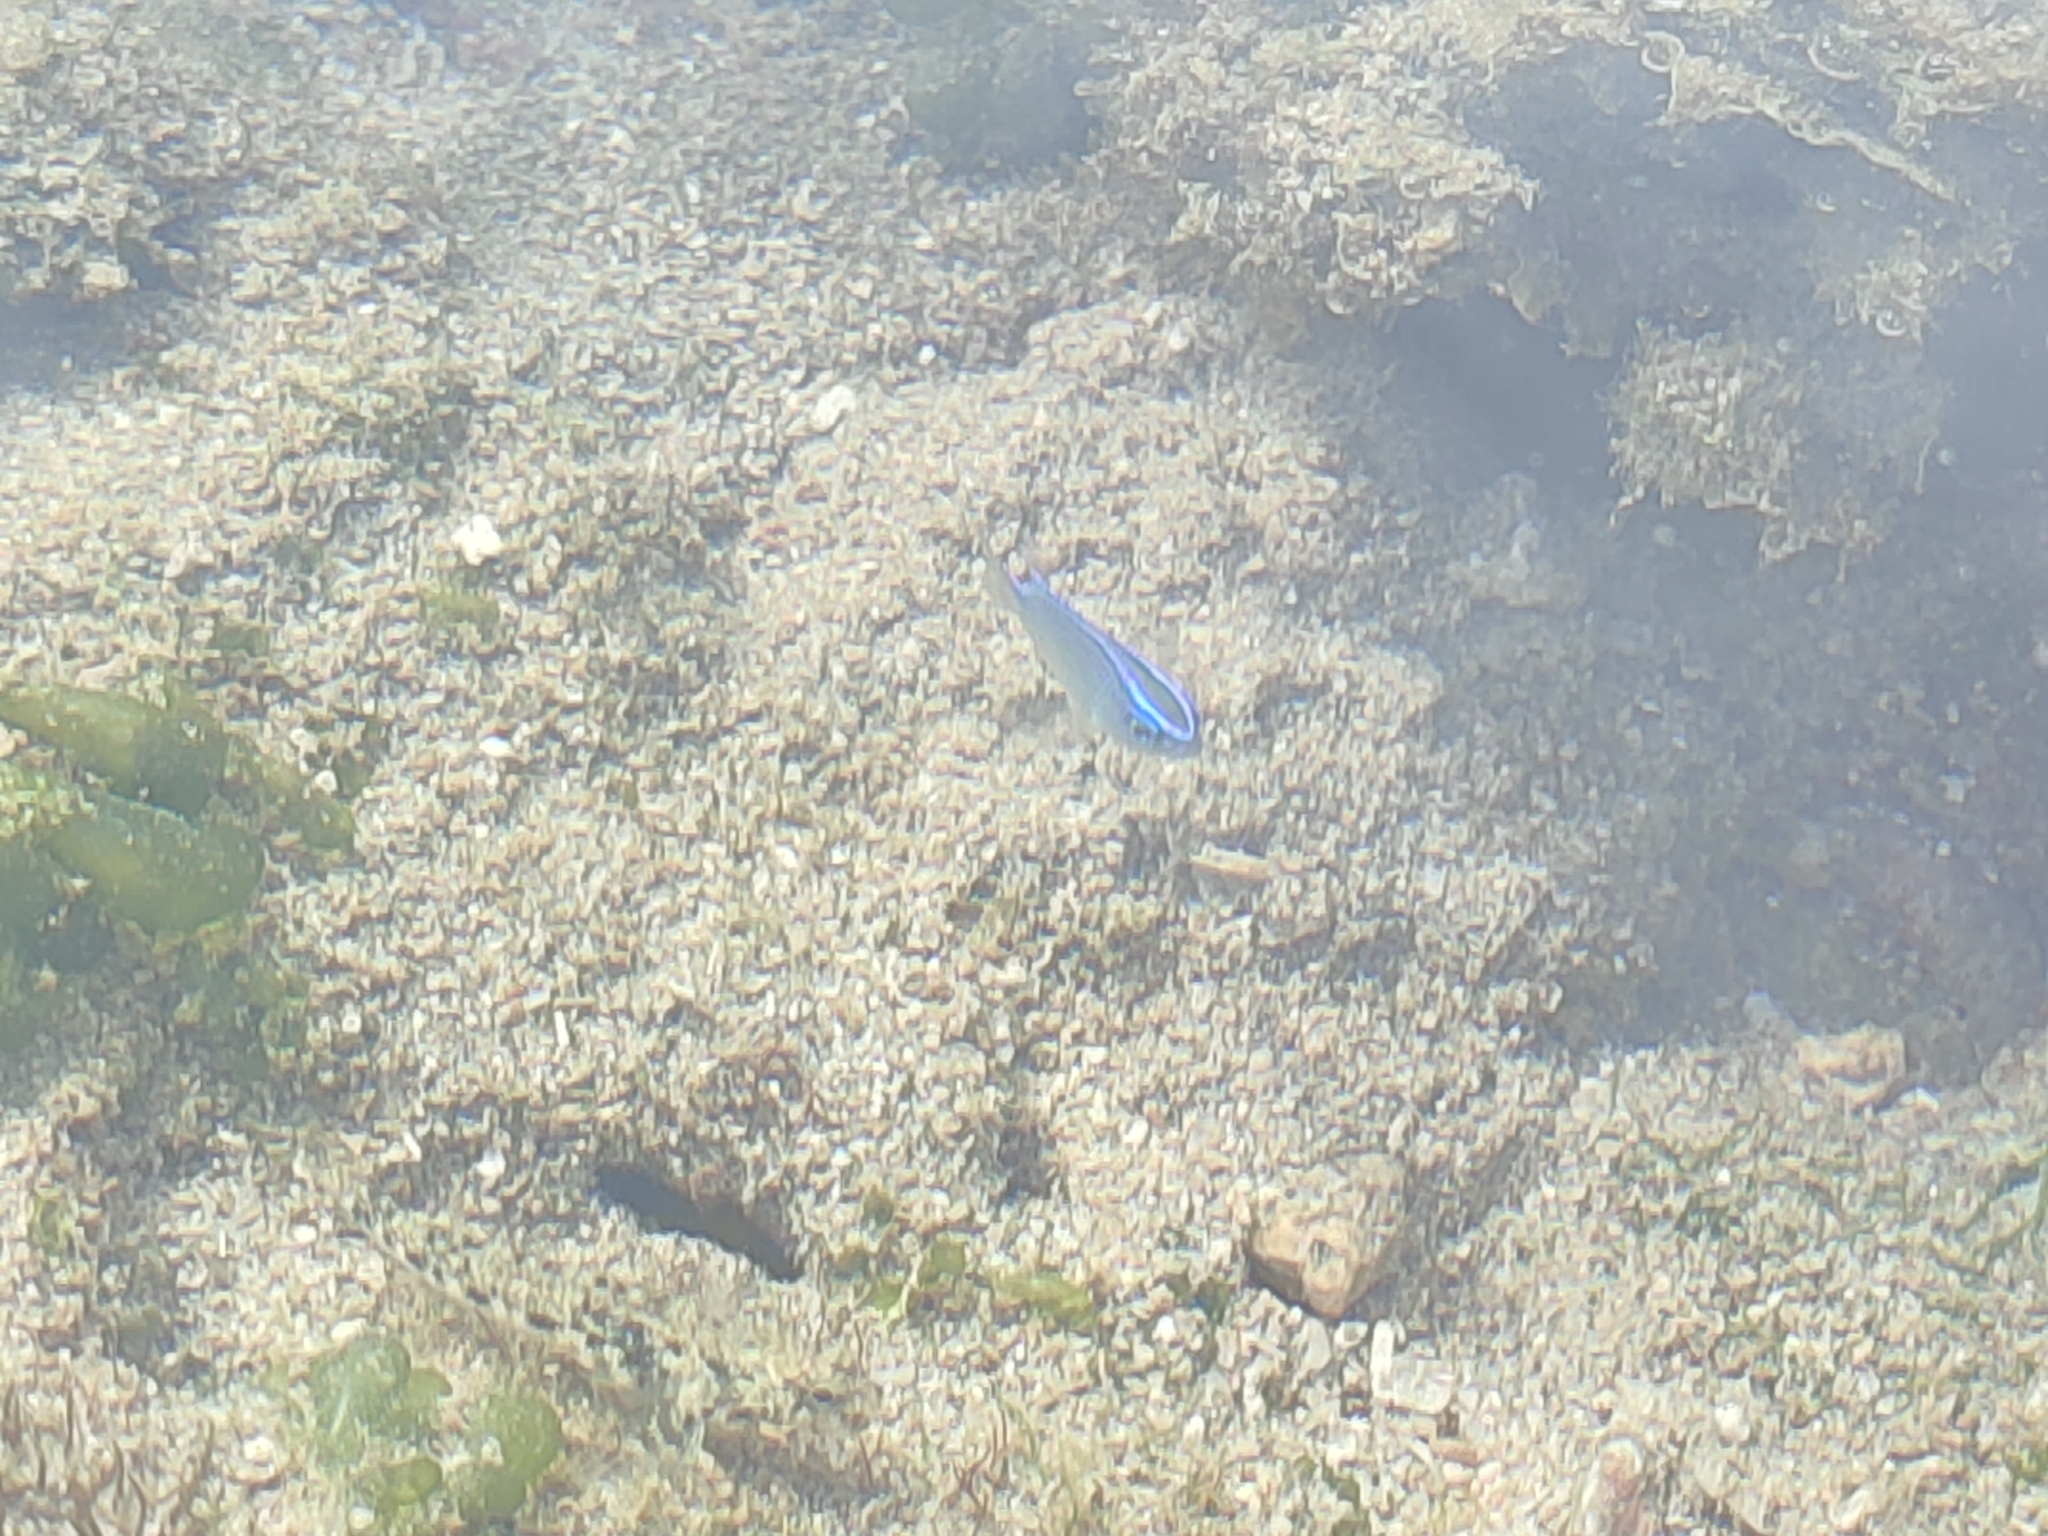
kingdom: Animalia
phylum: Chordata
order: Perciformes
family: Pomacentridae
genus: Chrysiptera
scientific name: Chrysiptera glauca
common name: Grey demoiselle
